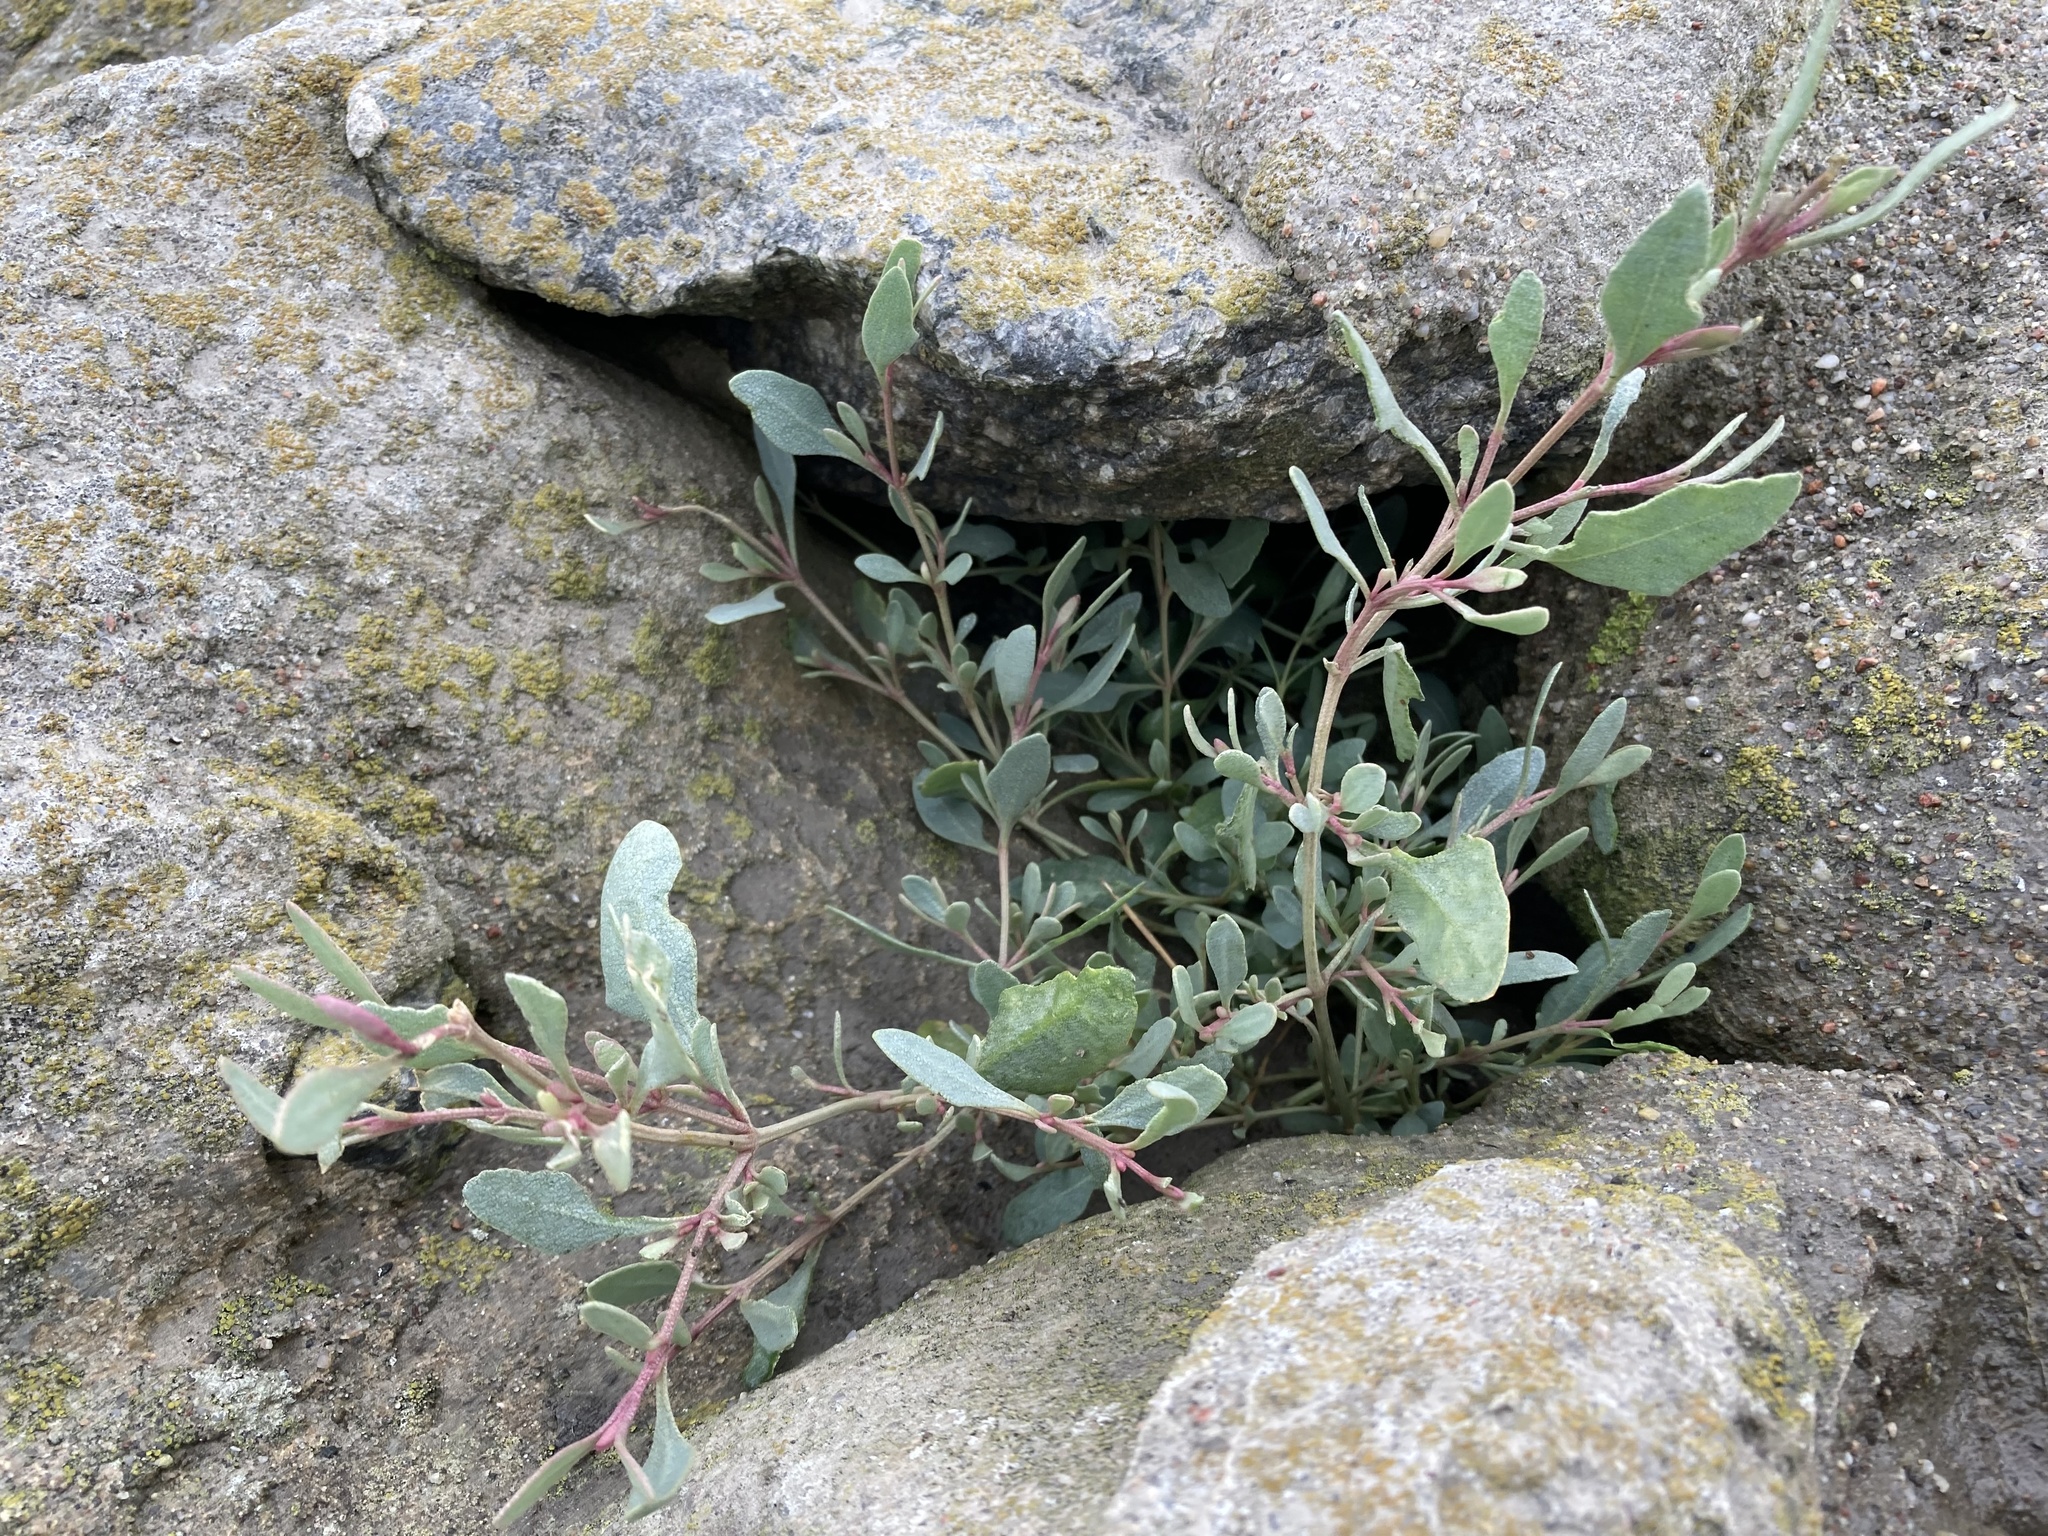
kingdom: Plantae
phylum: Tracheophyta
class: Magnoliopsida
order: Caryophyllales
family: Amaranthaceae
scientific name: Amaranthaceae
